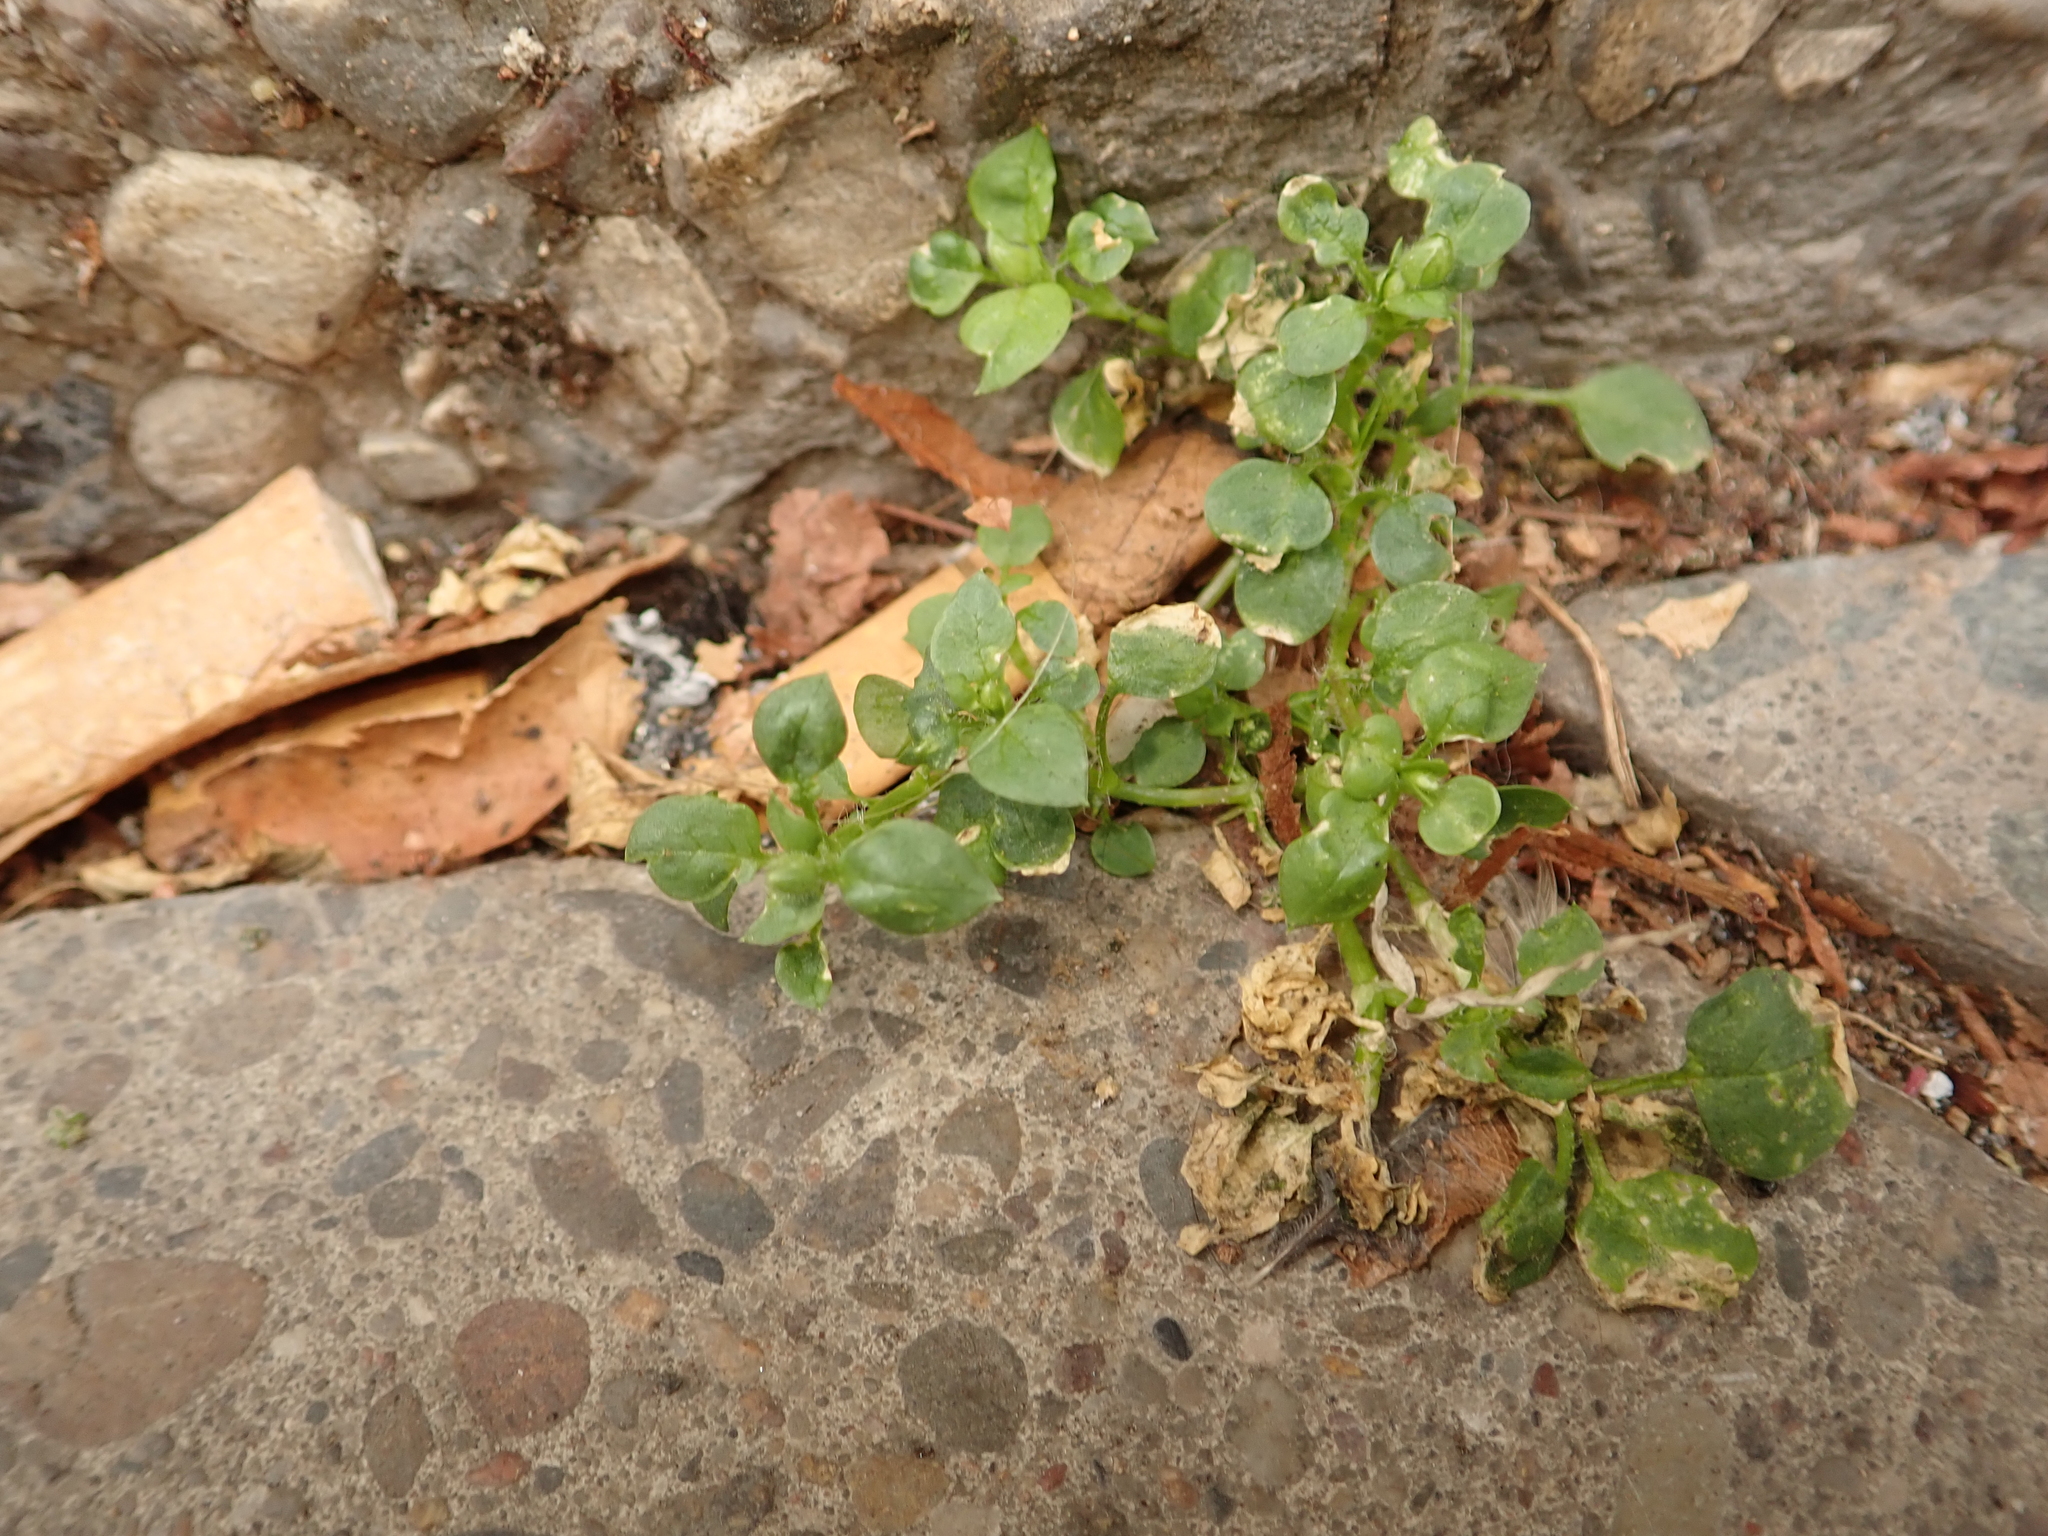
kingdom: Plantae
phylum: Tracheophyta
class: Magnoliopsida
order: Caryophyllales
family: Caryophyllaceae
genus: Stellaria
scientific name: Stellaria media
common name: Common chickweed
